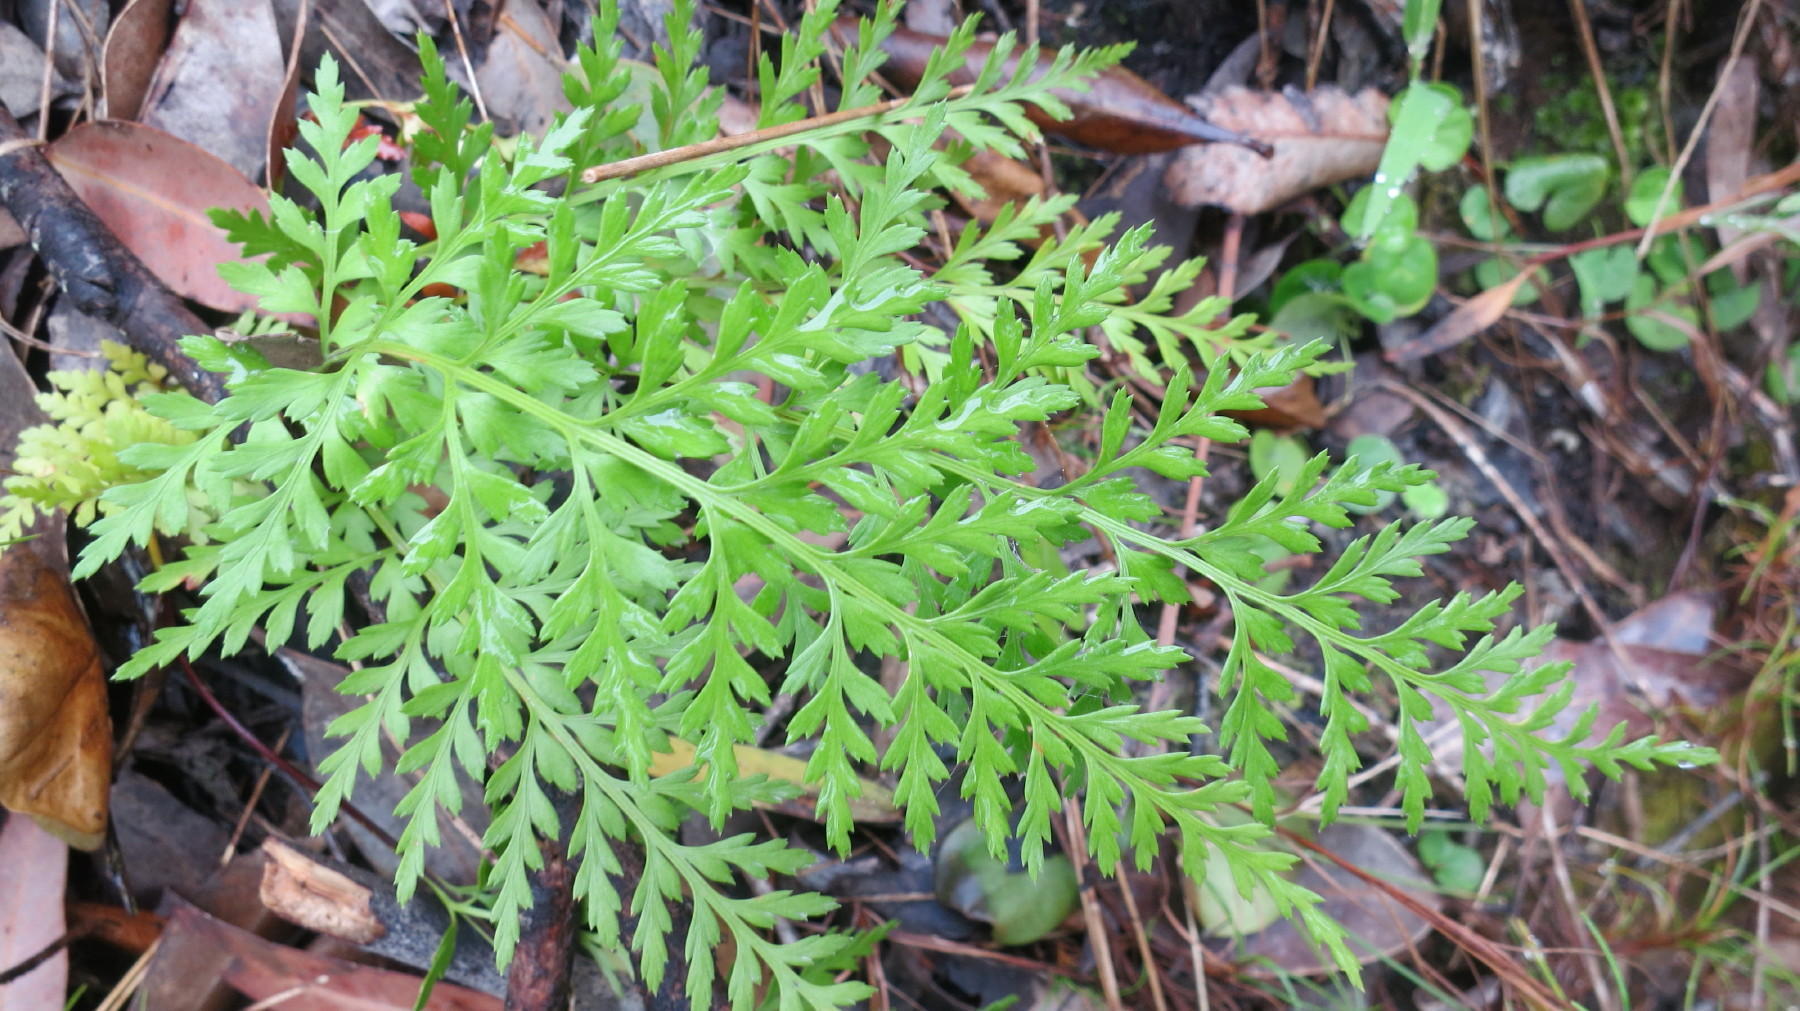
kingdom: Plantae
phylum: Tracheophyta
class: Polypodiopsida
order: Polypodiales
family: Aspleniaceae
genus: Asplenium
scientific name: Asplenium adiantum-nigrum
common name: Black spleenwort
